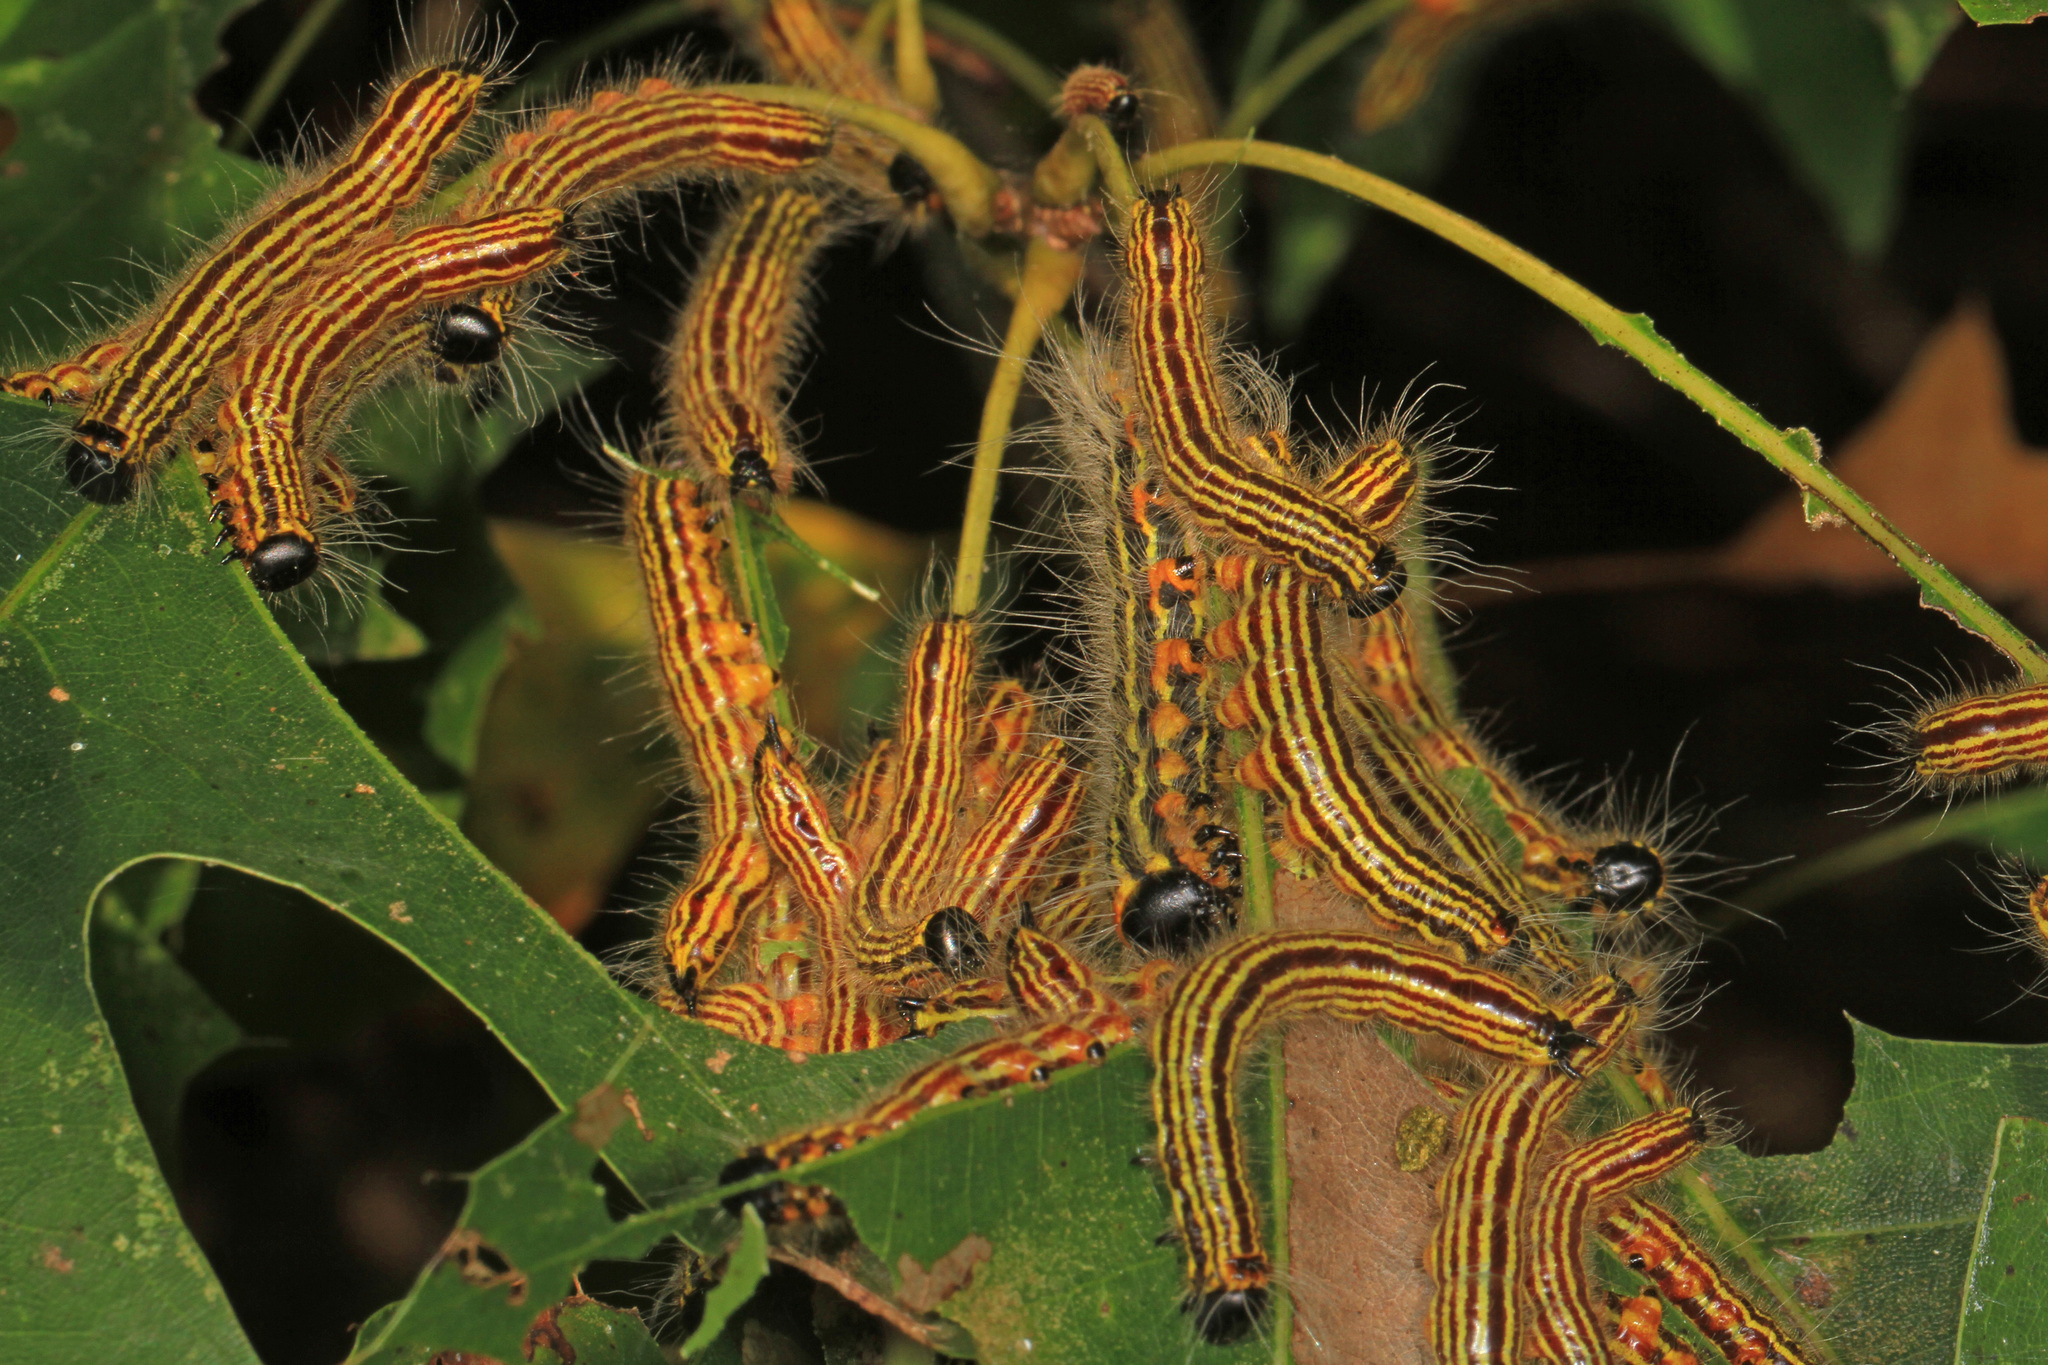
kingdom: Animalia
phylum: Arthropoda
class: Insecta
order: Lepidoptera
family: Notodontidae
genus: Datana
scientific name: Datana ministra
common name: Yellow-necked caterpillar moth
